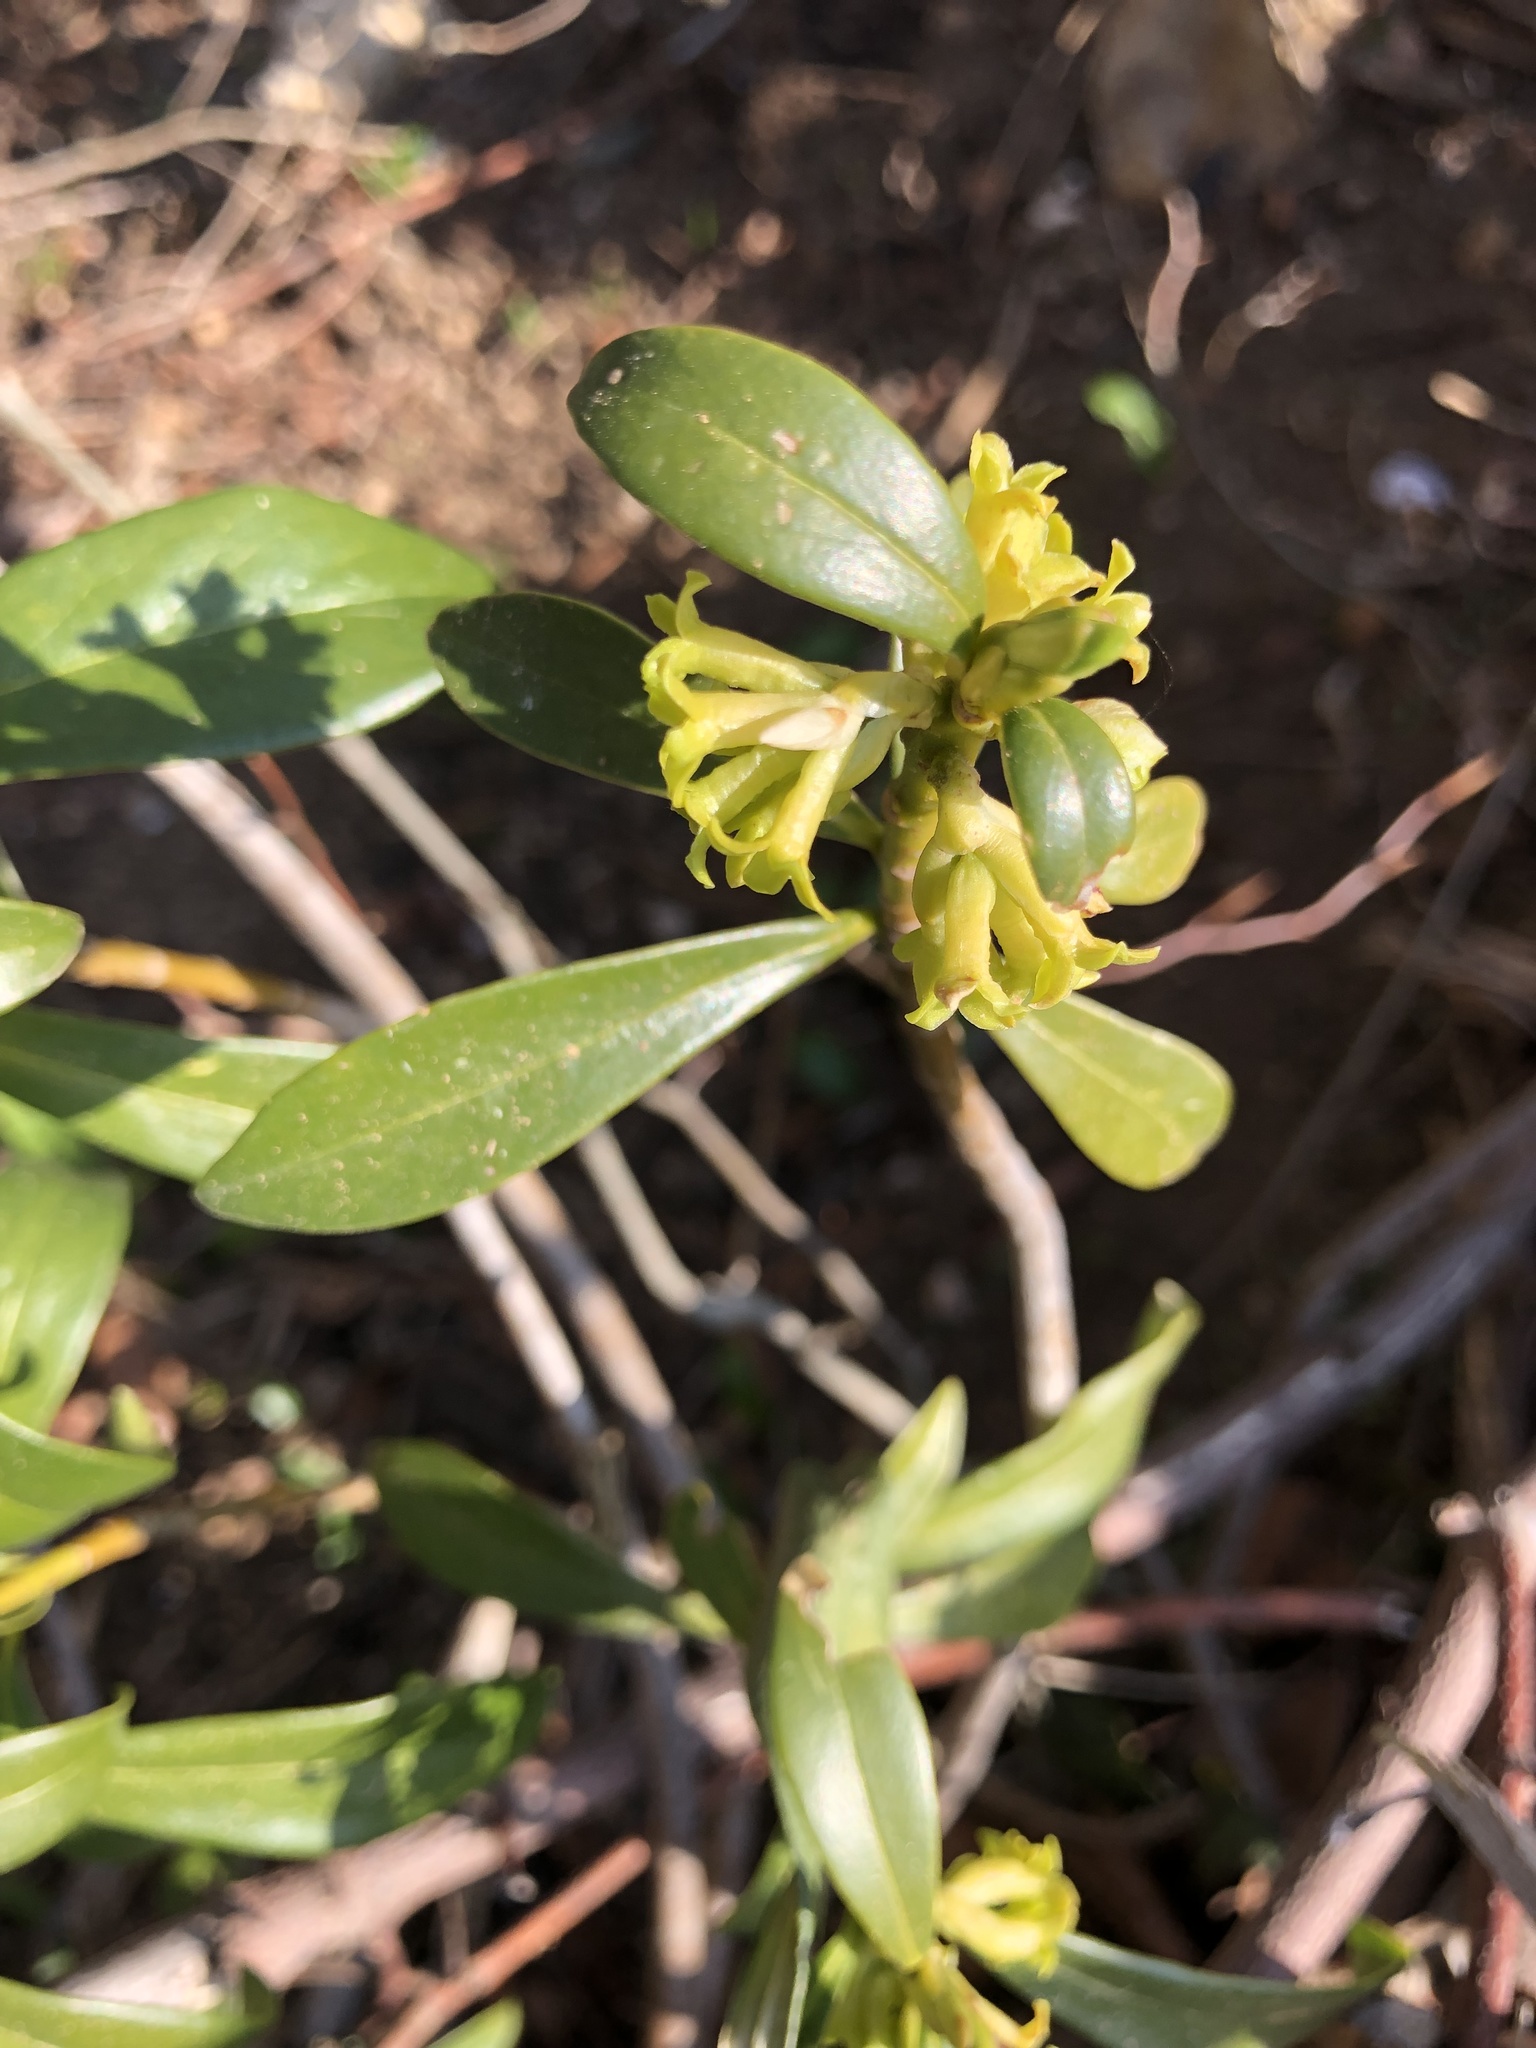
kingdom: Plantae
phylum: Tracheophyta
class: Magnoliopsida
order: Malvales
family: Thymelaeaceae
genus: Daphne
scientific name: Daphne laureola
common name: Spurge-laurel
